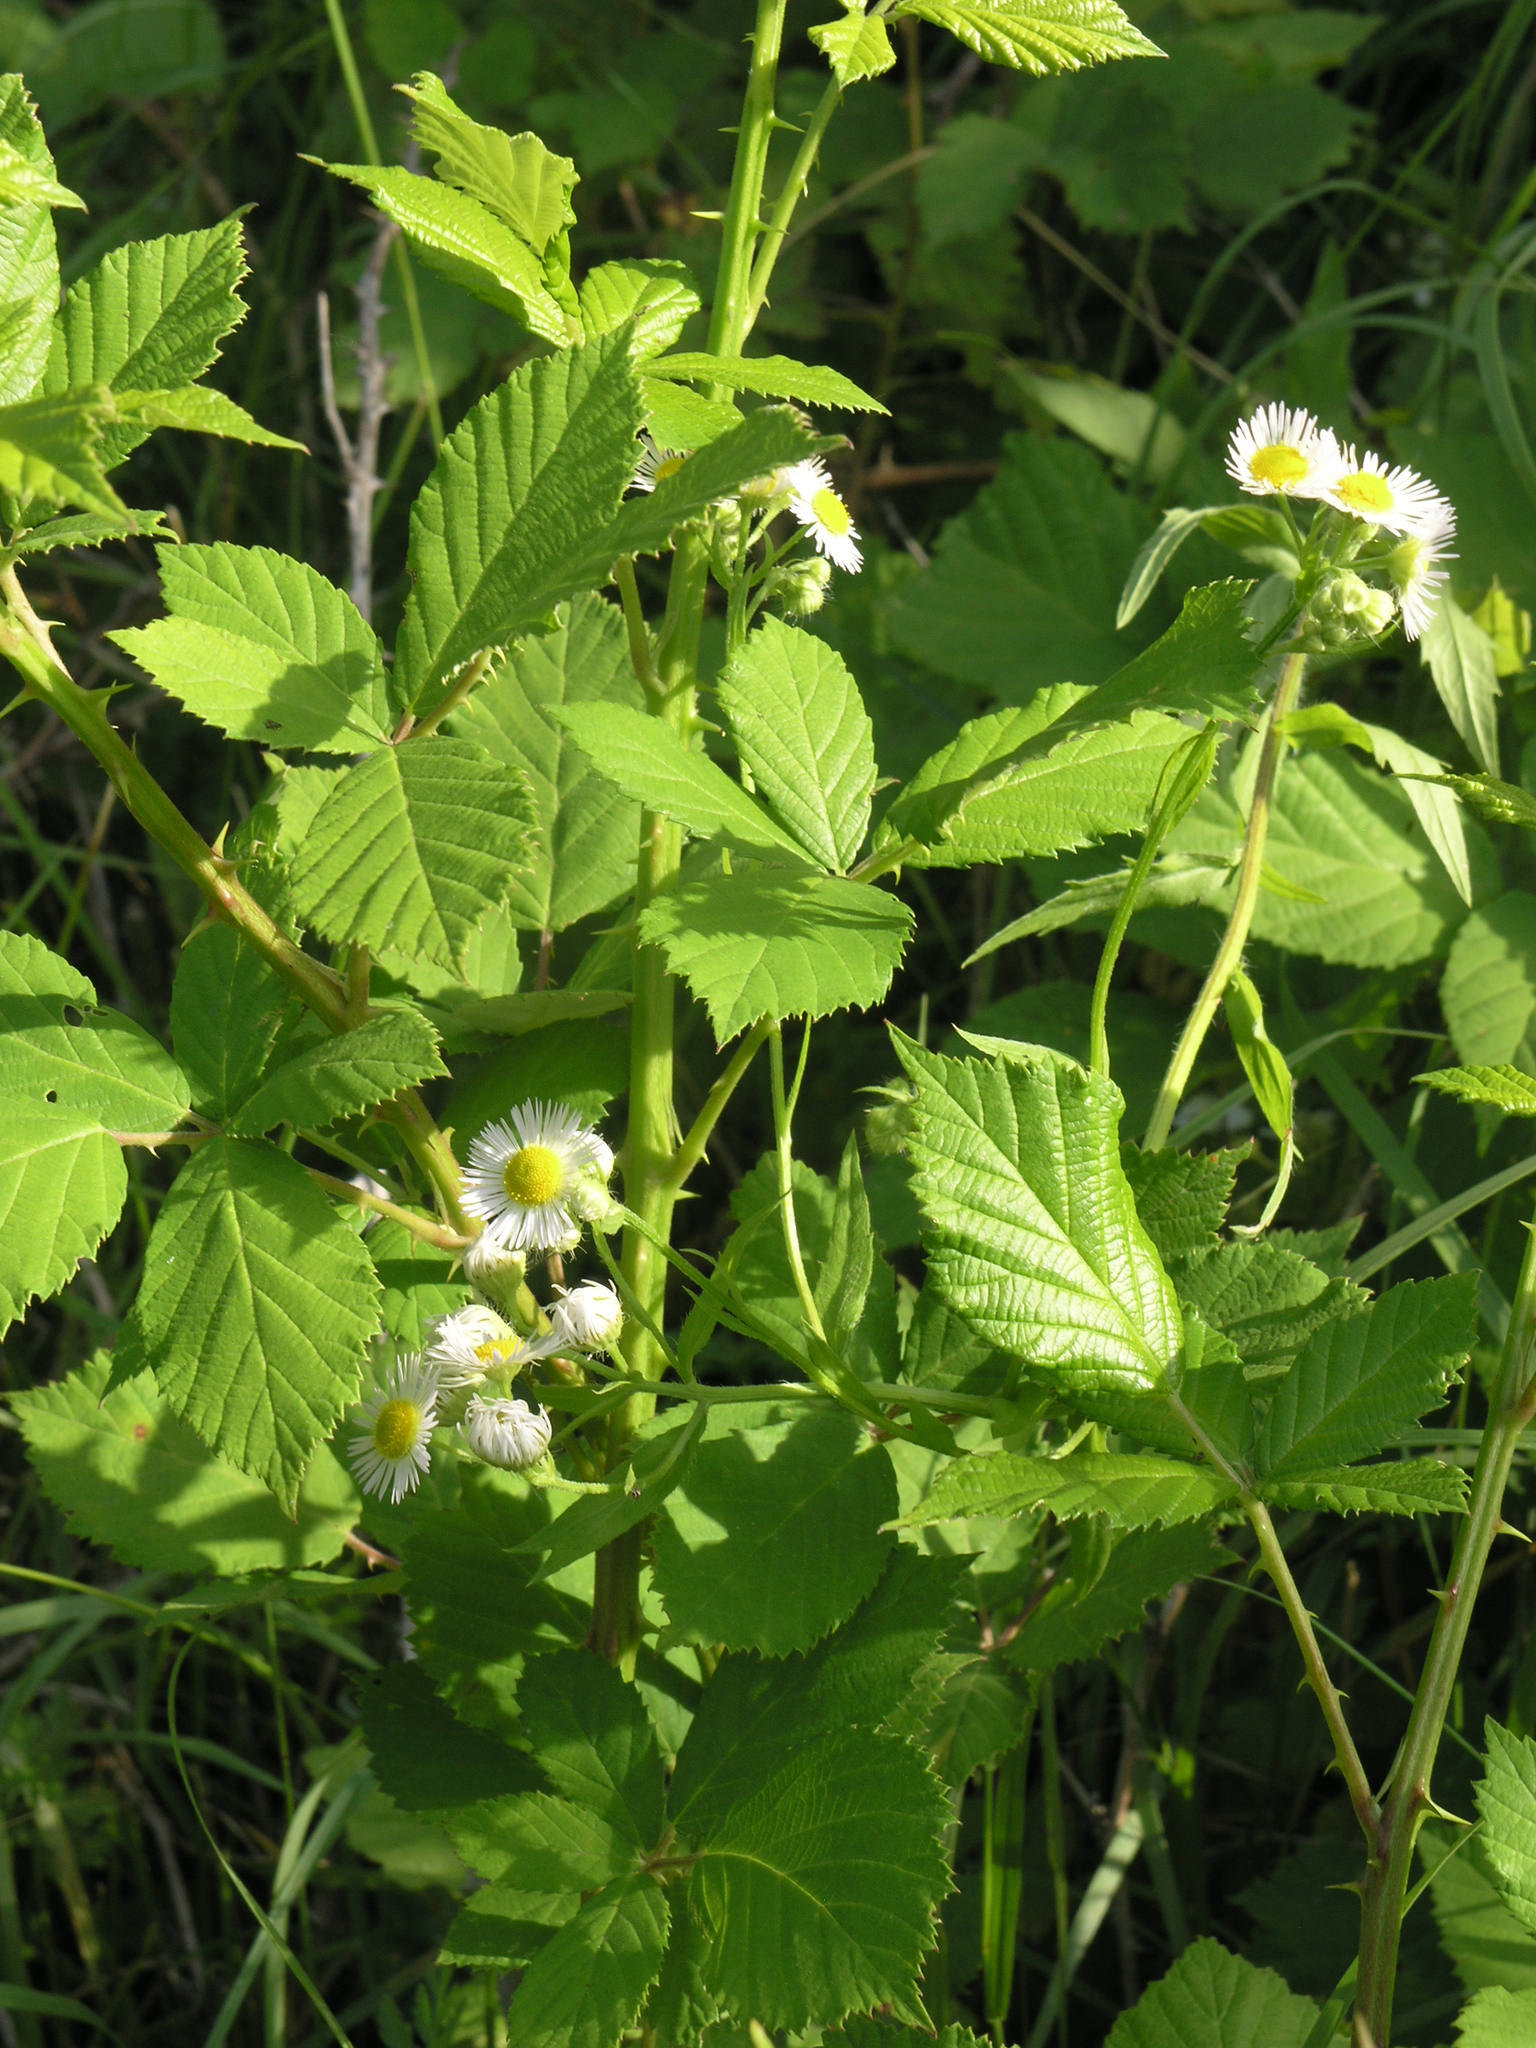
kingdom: Plantae
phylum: Tracheophyta
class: Magnoliopsida
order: Asterales
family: Asteraceae
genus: Erigeron
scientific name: Erigeron annuus
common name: Tall fleabane
